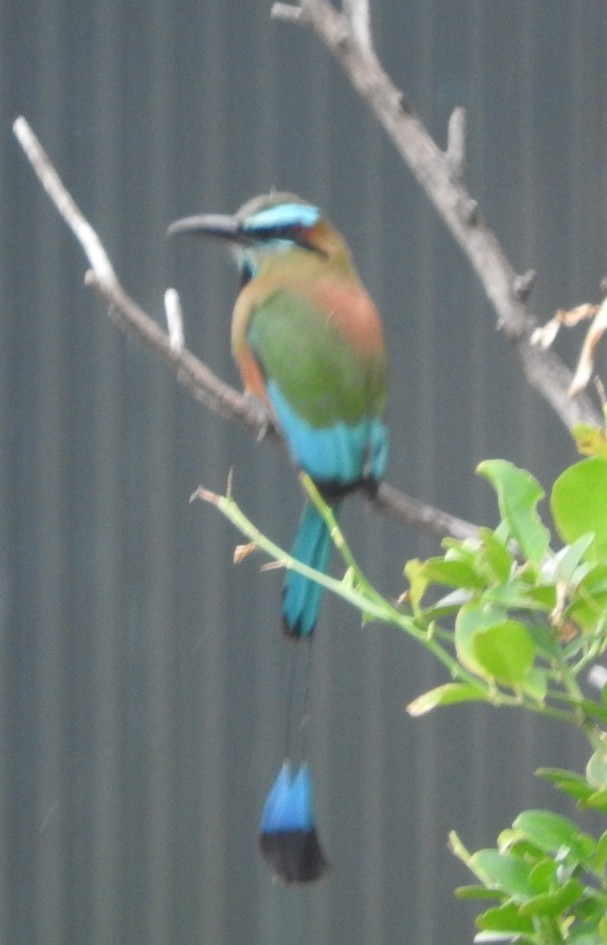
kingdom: Animalia
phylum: Chordata
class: Aves
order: Coraciiformes
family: Momotidae
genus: Eumomota
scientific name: Eumomota superciliosa
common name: Turquoise-browed motmot
